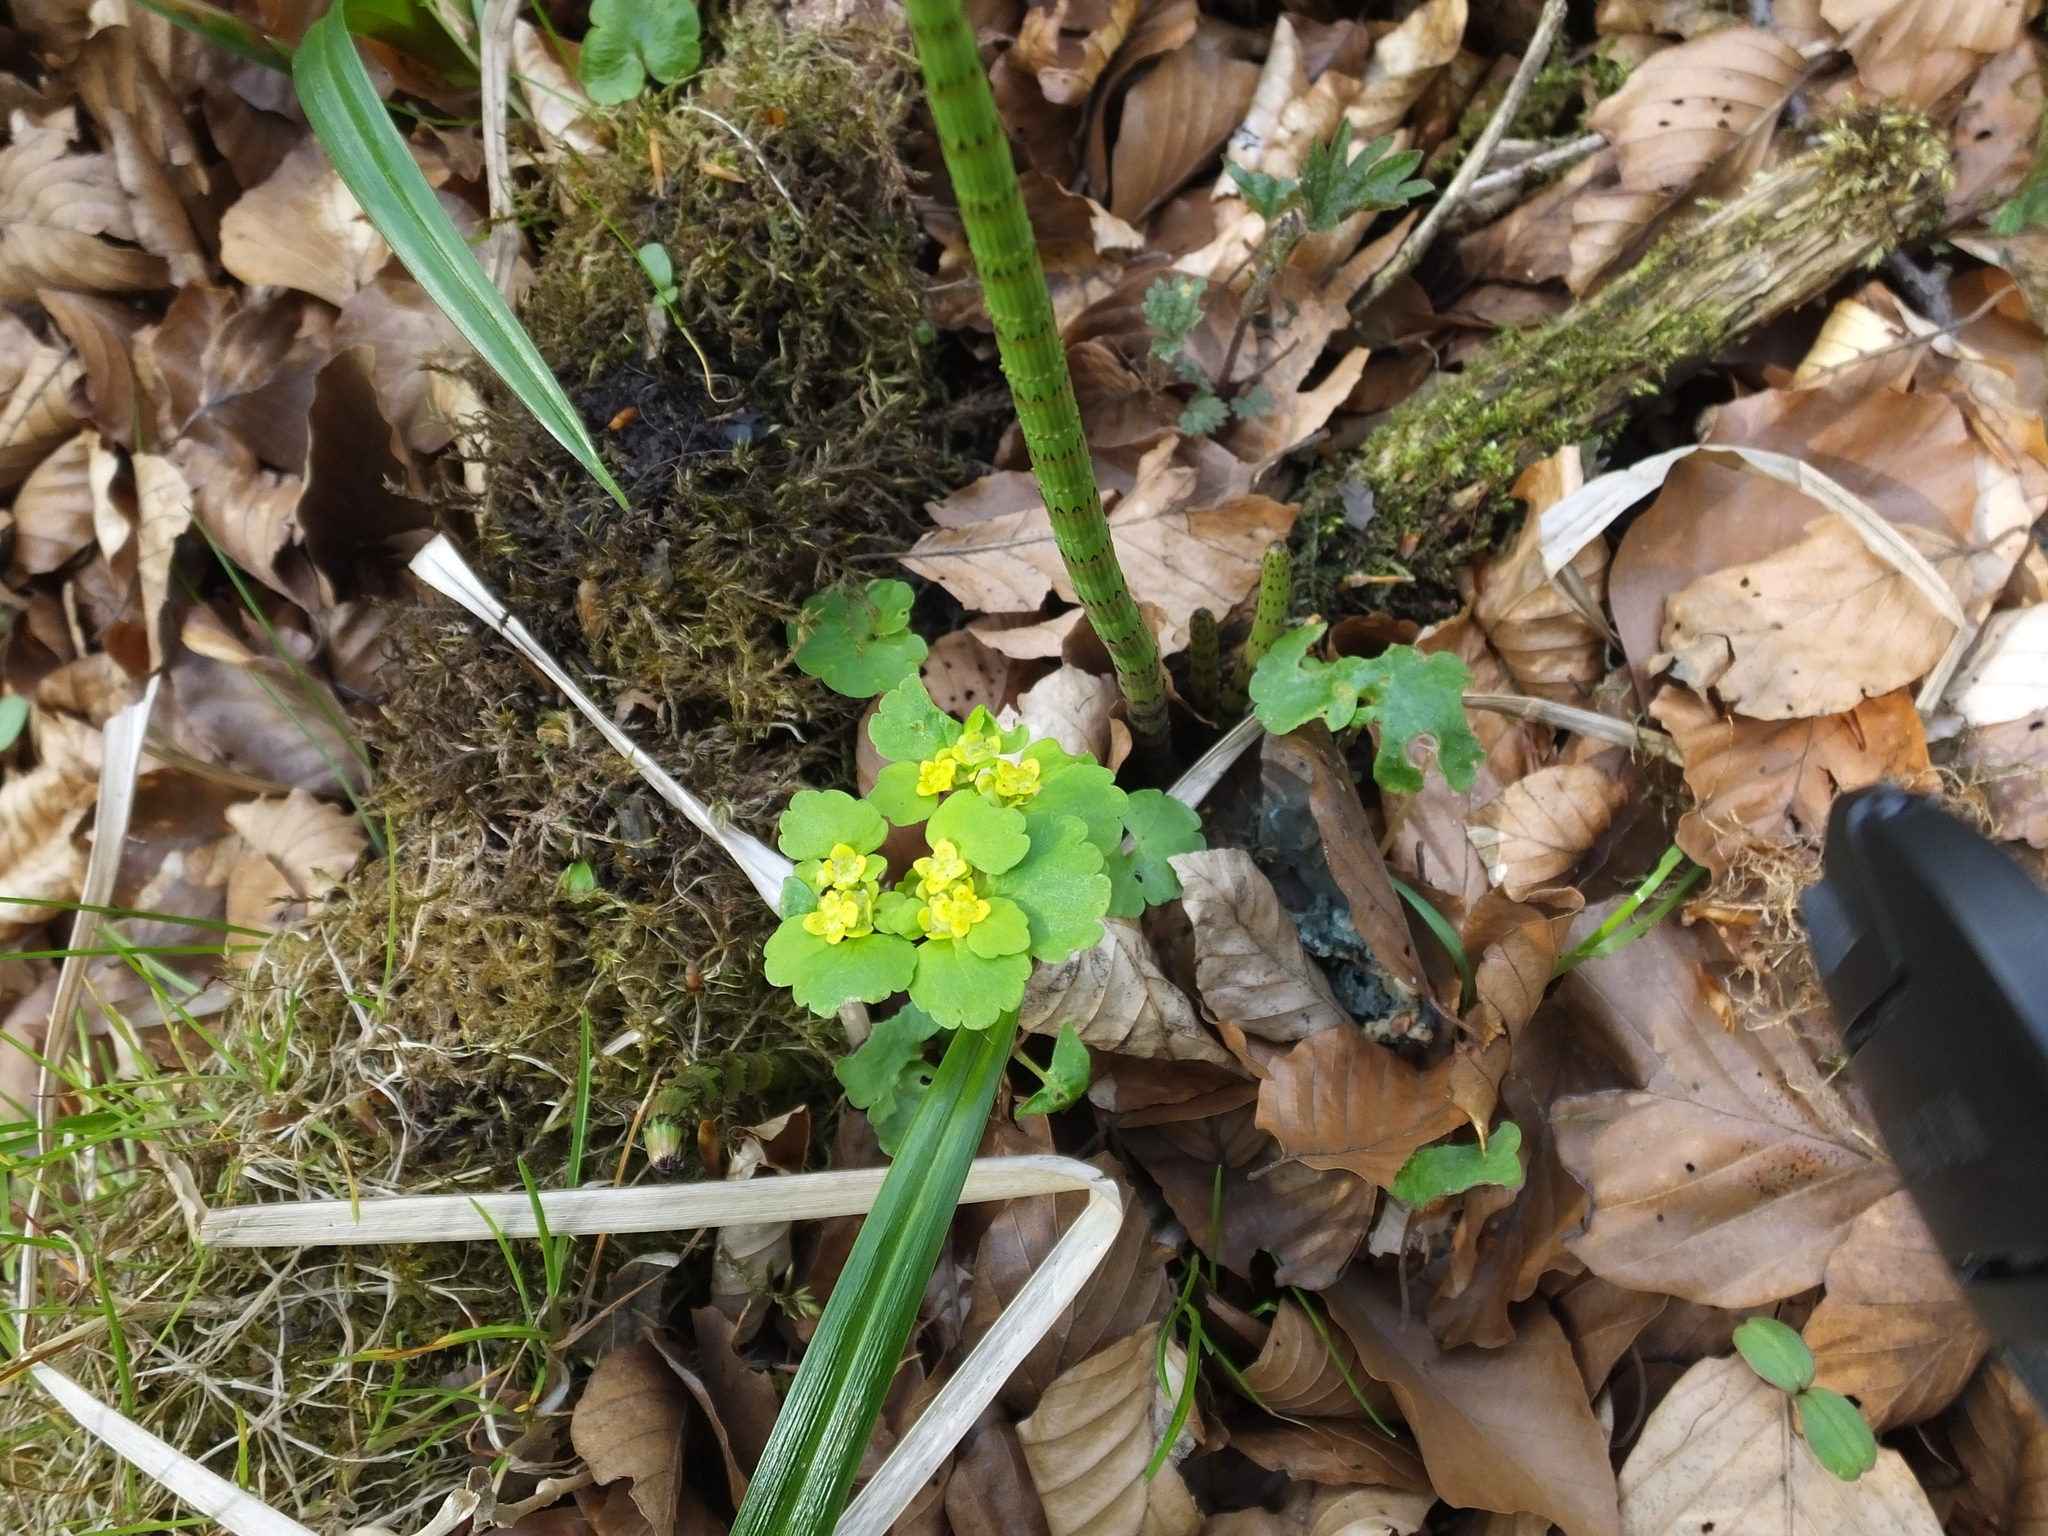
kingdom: Plantae
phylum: Tracheophyta
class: Magnoliopsida
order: Saxifragales
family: Saxifragaceae
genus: Chrysosplenium
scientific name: Chrysosplenium alternifolium
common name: Alternate-leaved golden-saxifrage
